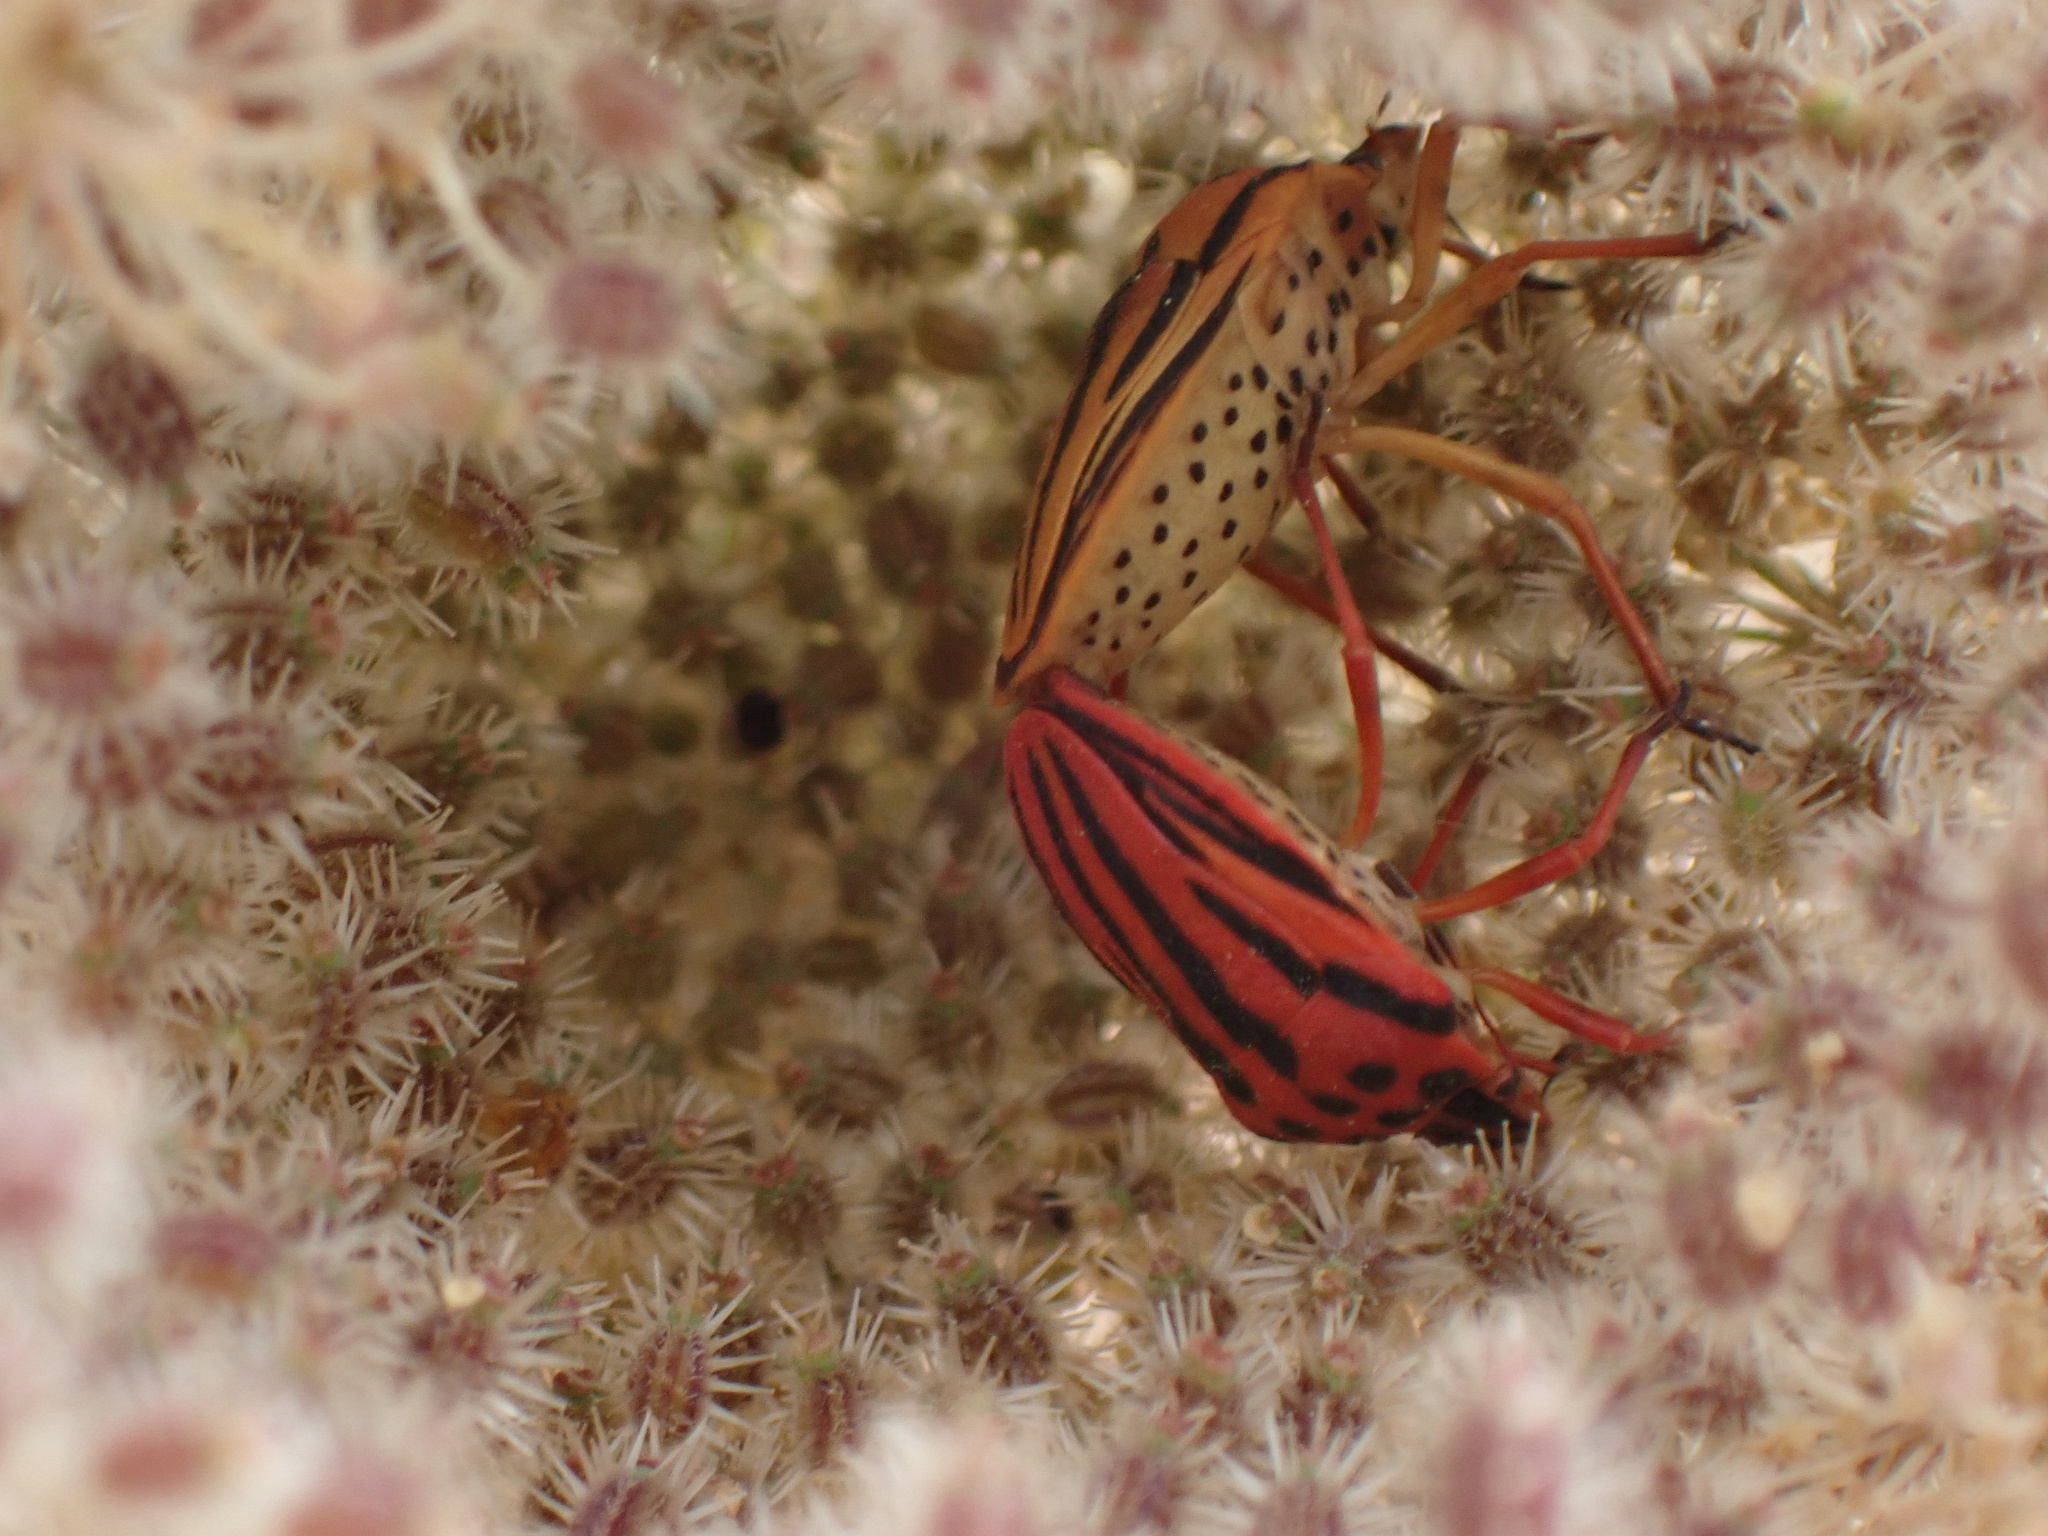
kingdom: Animalia
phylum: Arthropoda
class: Insecta
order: Hemiptera
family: Pentatomidae
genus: Graphosoma
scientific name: Graphosoma semipunctatum
